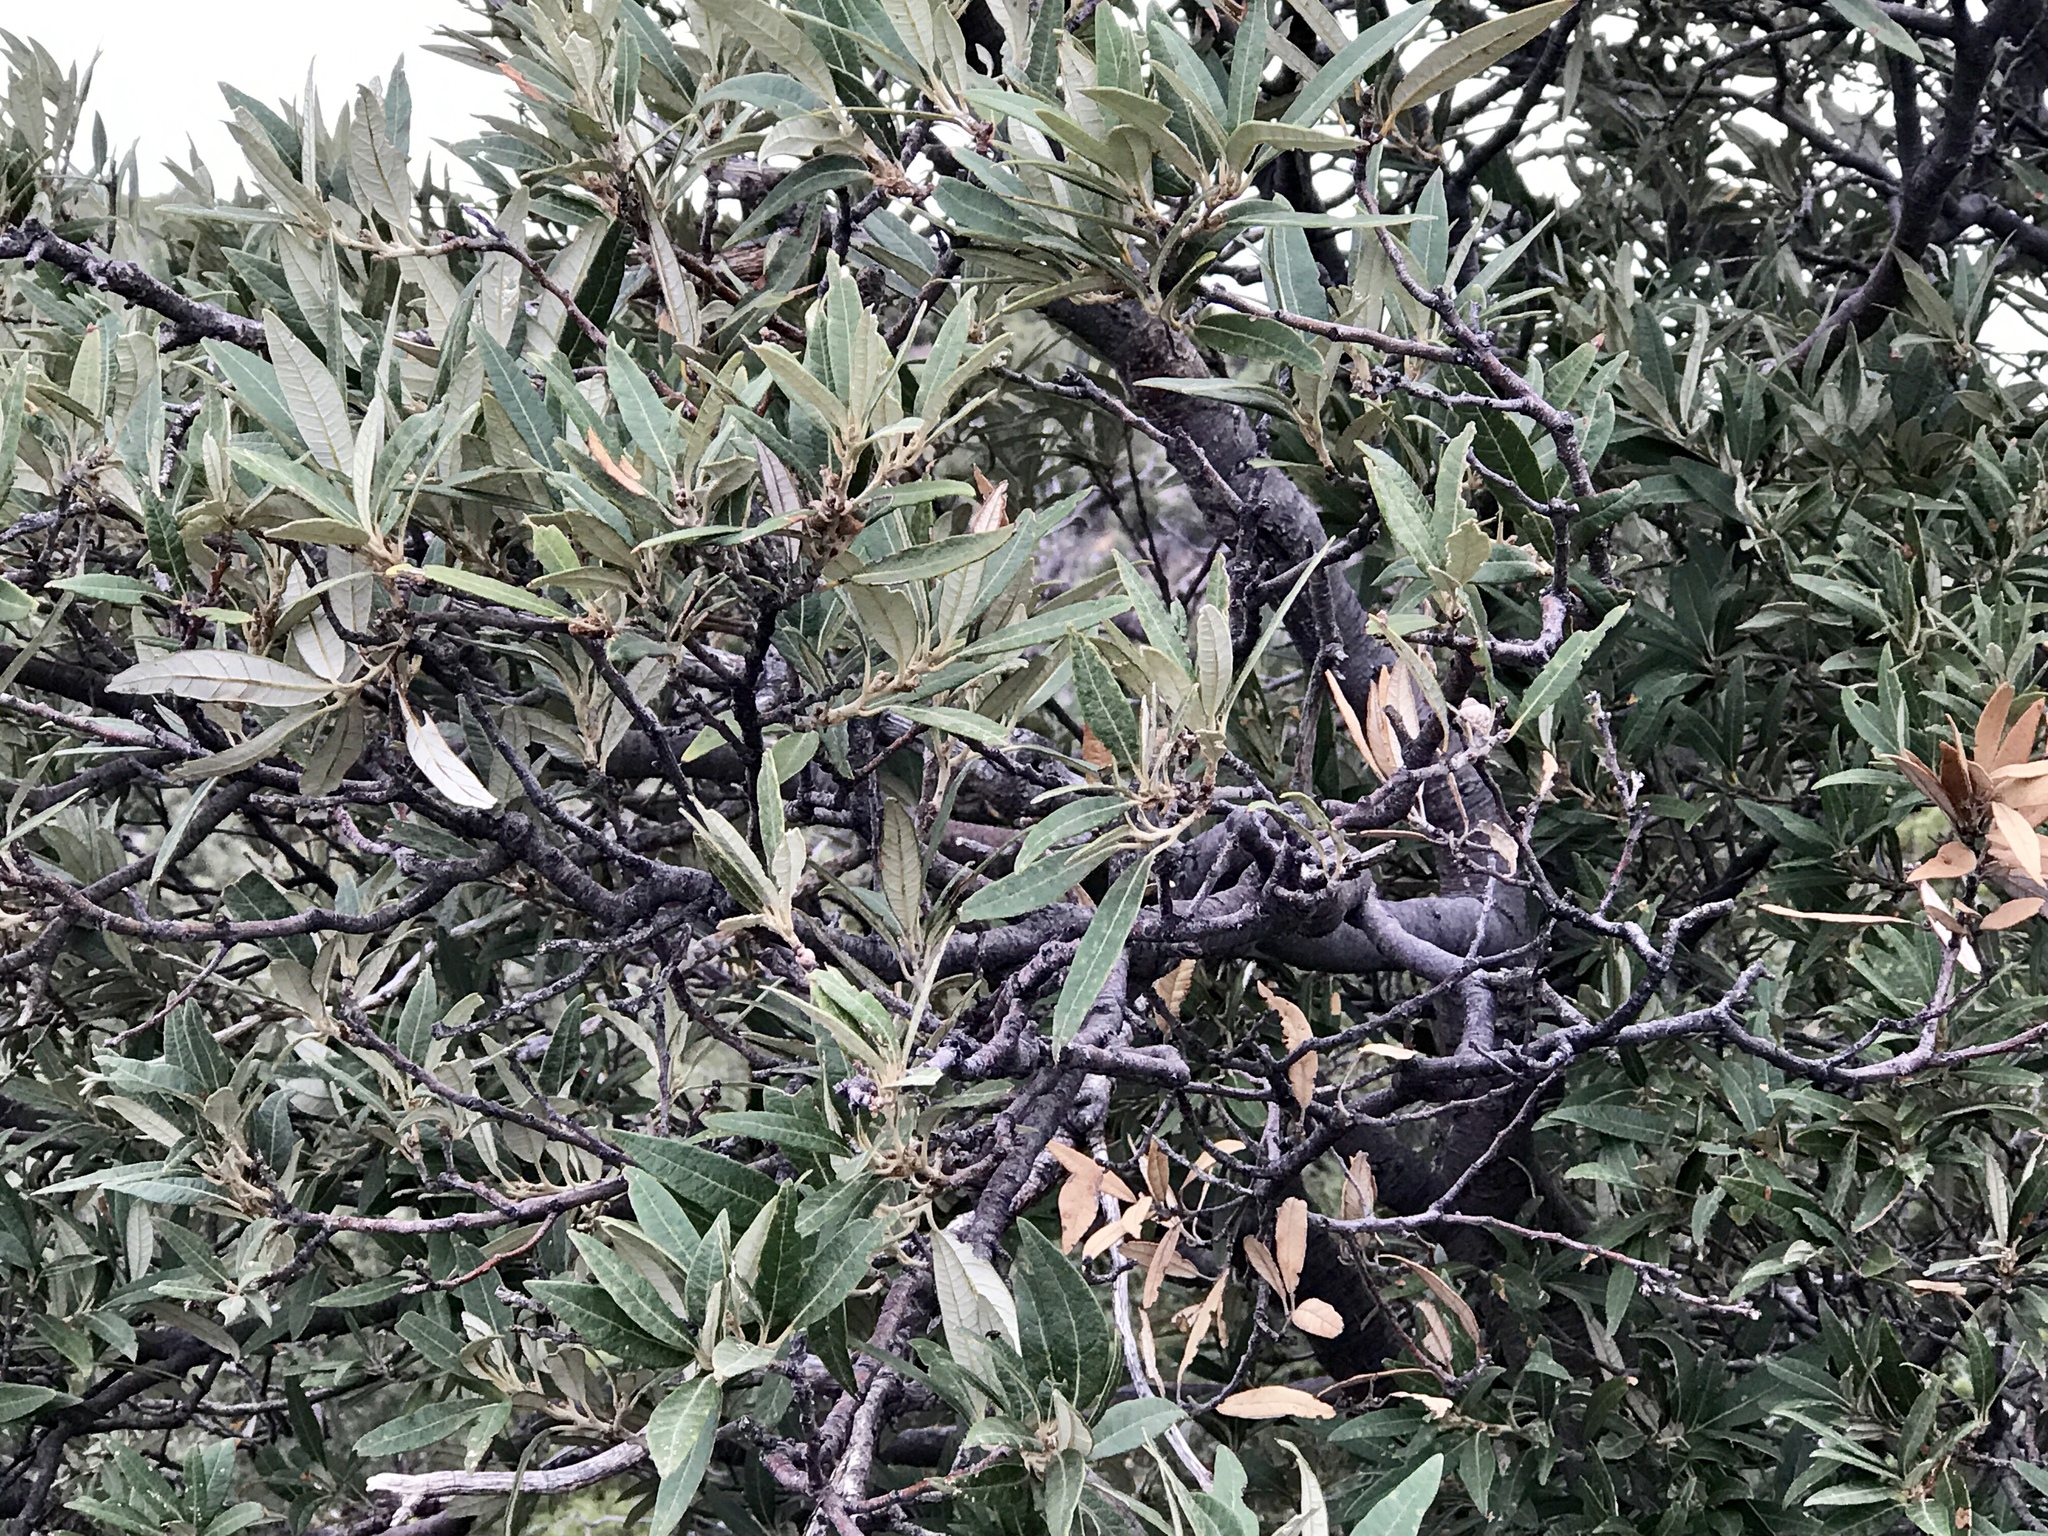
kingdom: Plantae
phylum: Tracheophyta
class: Magnoliopsida
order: Fagales
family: Fagaceae
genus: Quercus
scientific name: Quercus hypoleucoides
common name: Silverleaf oak
